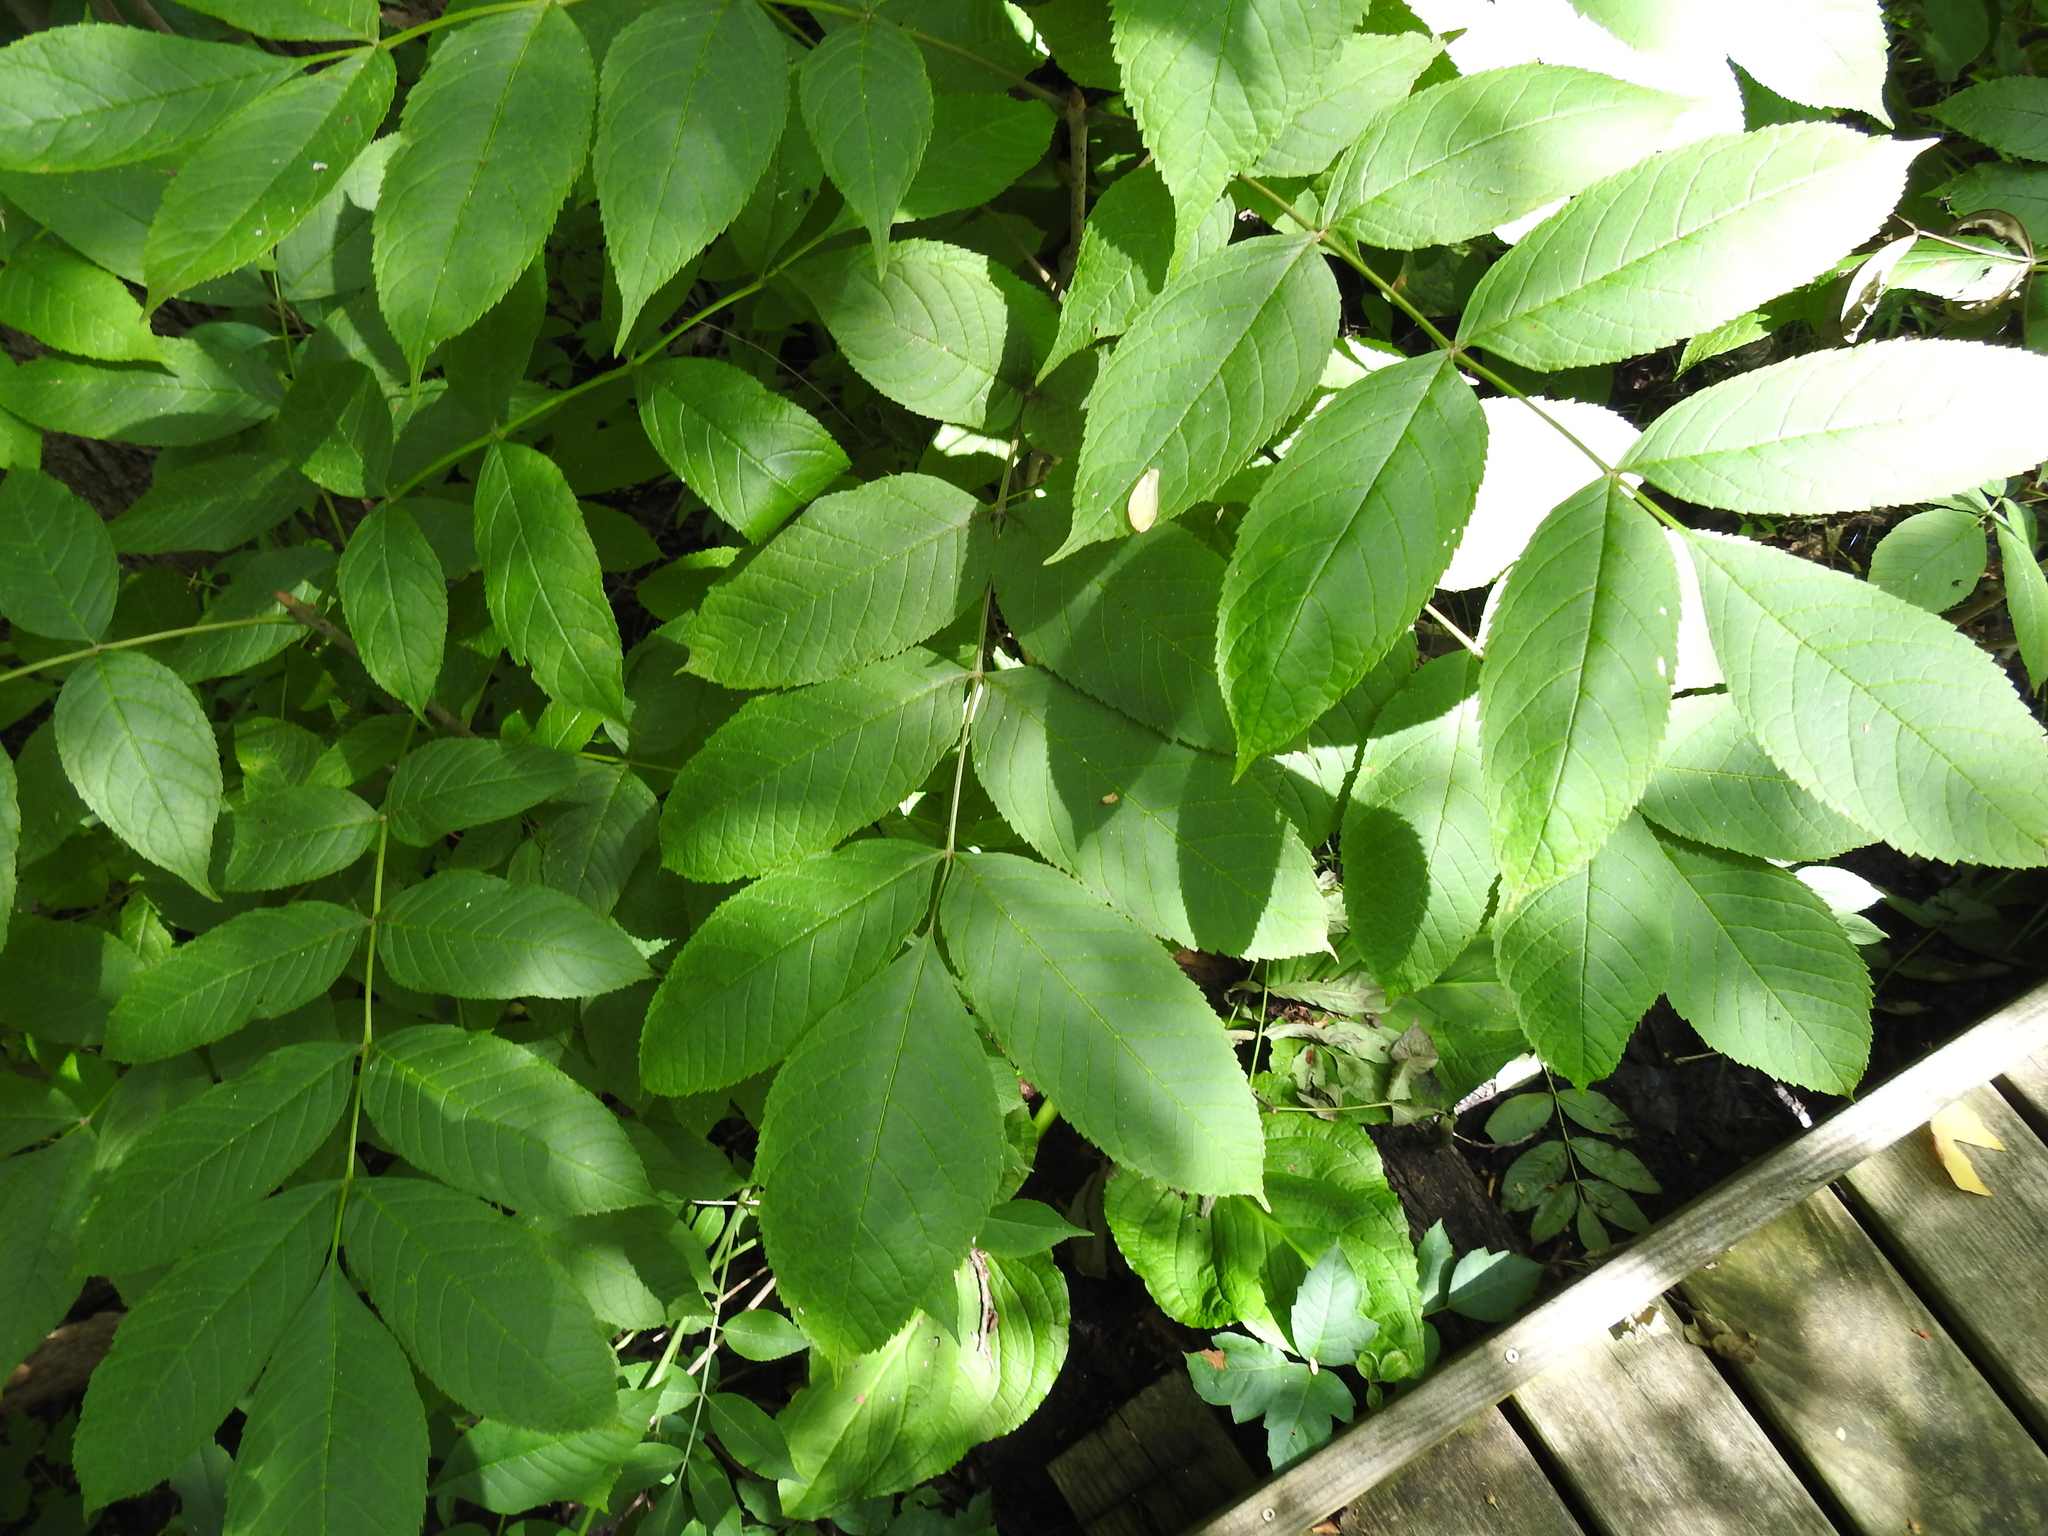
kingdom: Plantae
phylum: Tracheophyta
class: Magnoliopsida
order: Lamiales
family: Oleaceae
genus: Fraxinus
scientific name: Fraxinus nigra
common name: Black ash
